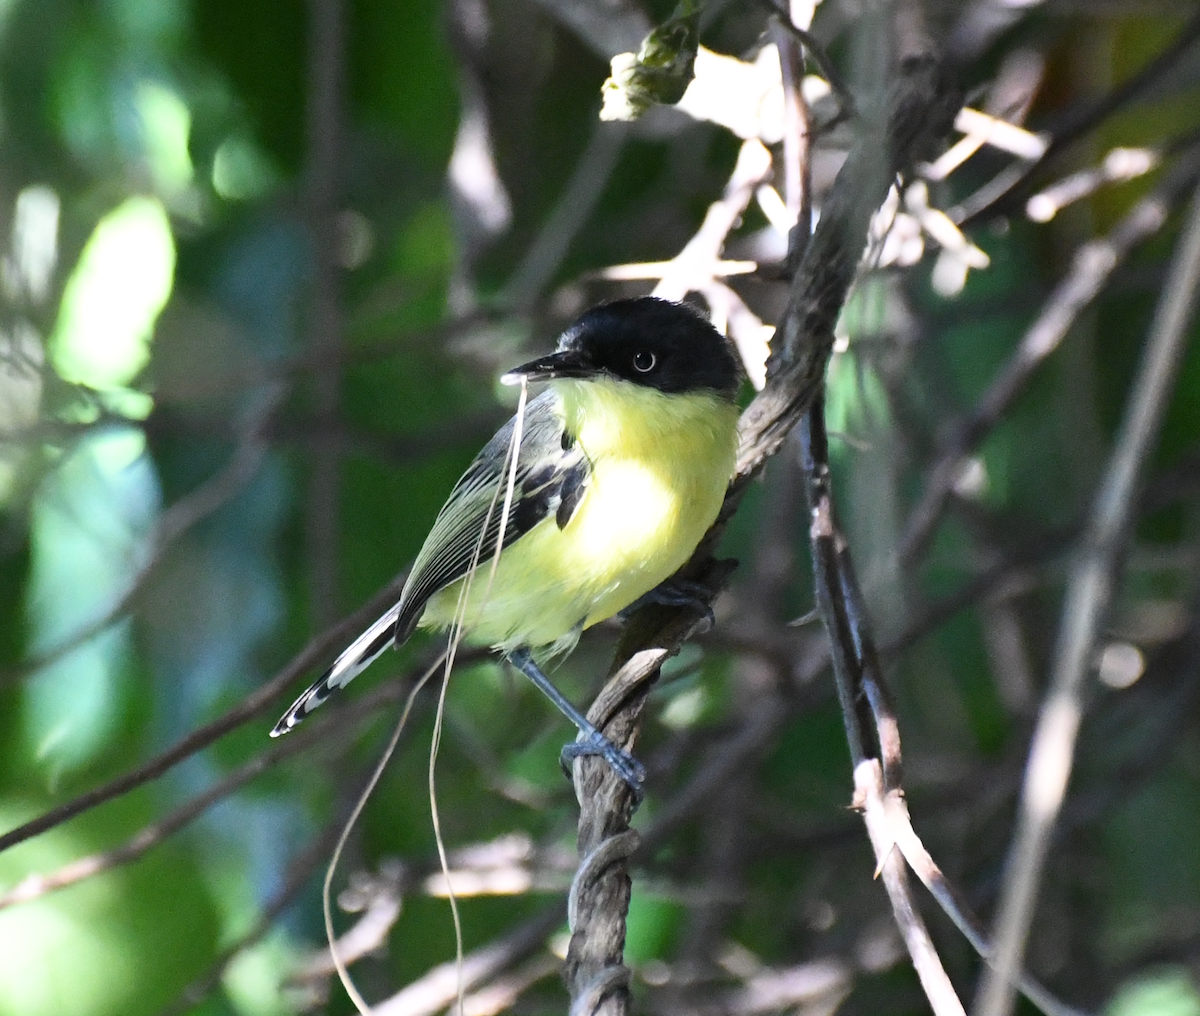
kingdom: Animalia
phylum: Chordata
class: Aves
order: Passeriformes
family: Tyrannidae
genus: Todirostrum
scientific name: Todirostrum cinereum
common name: Common tody-flycatcher
